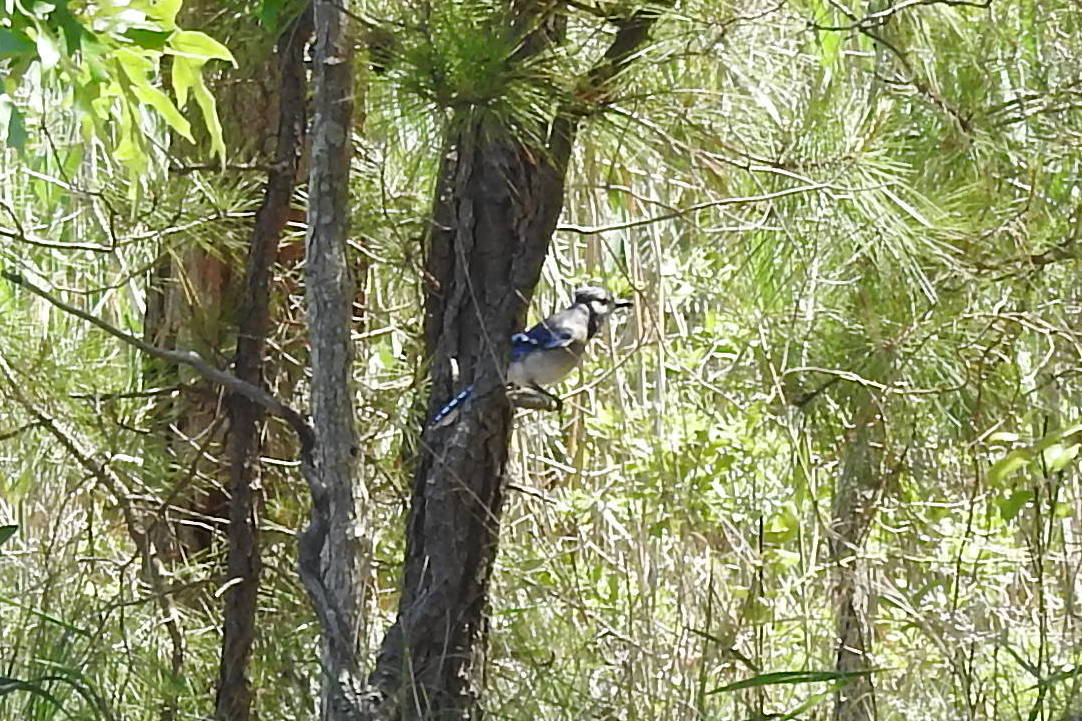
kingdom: Animalia
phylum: Chordata
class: Aves
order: Passeriformes
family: Corvidae
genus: Cyanocitta
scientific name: Cyanocitta cristata
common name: Blue jay
